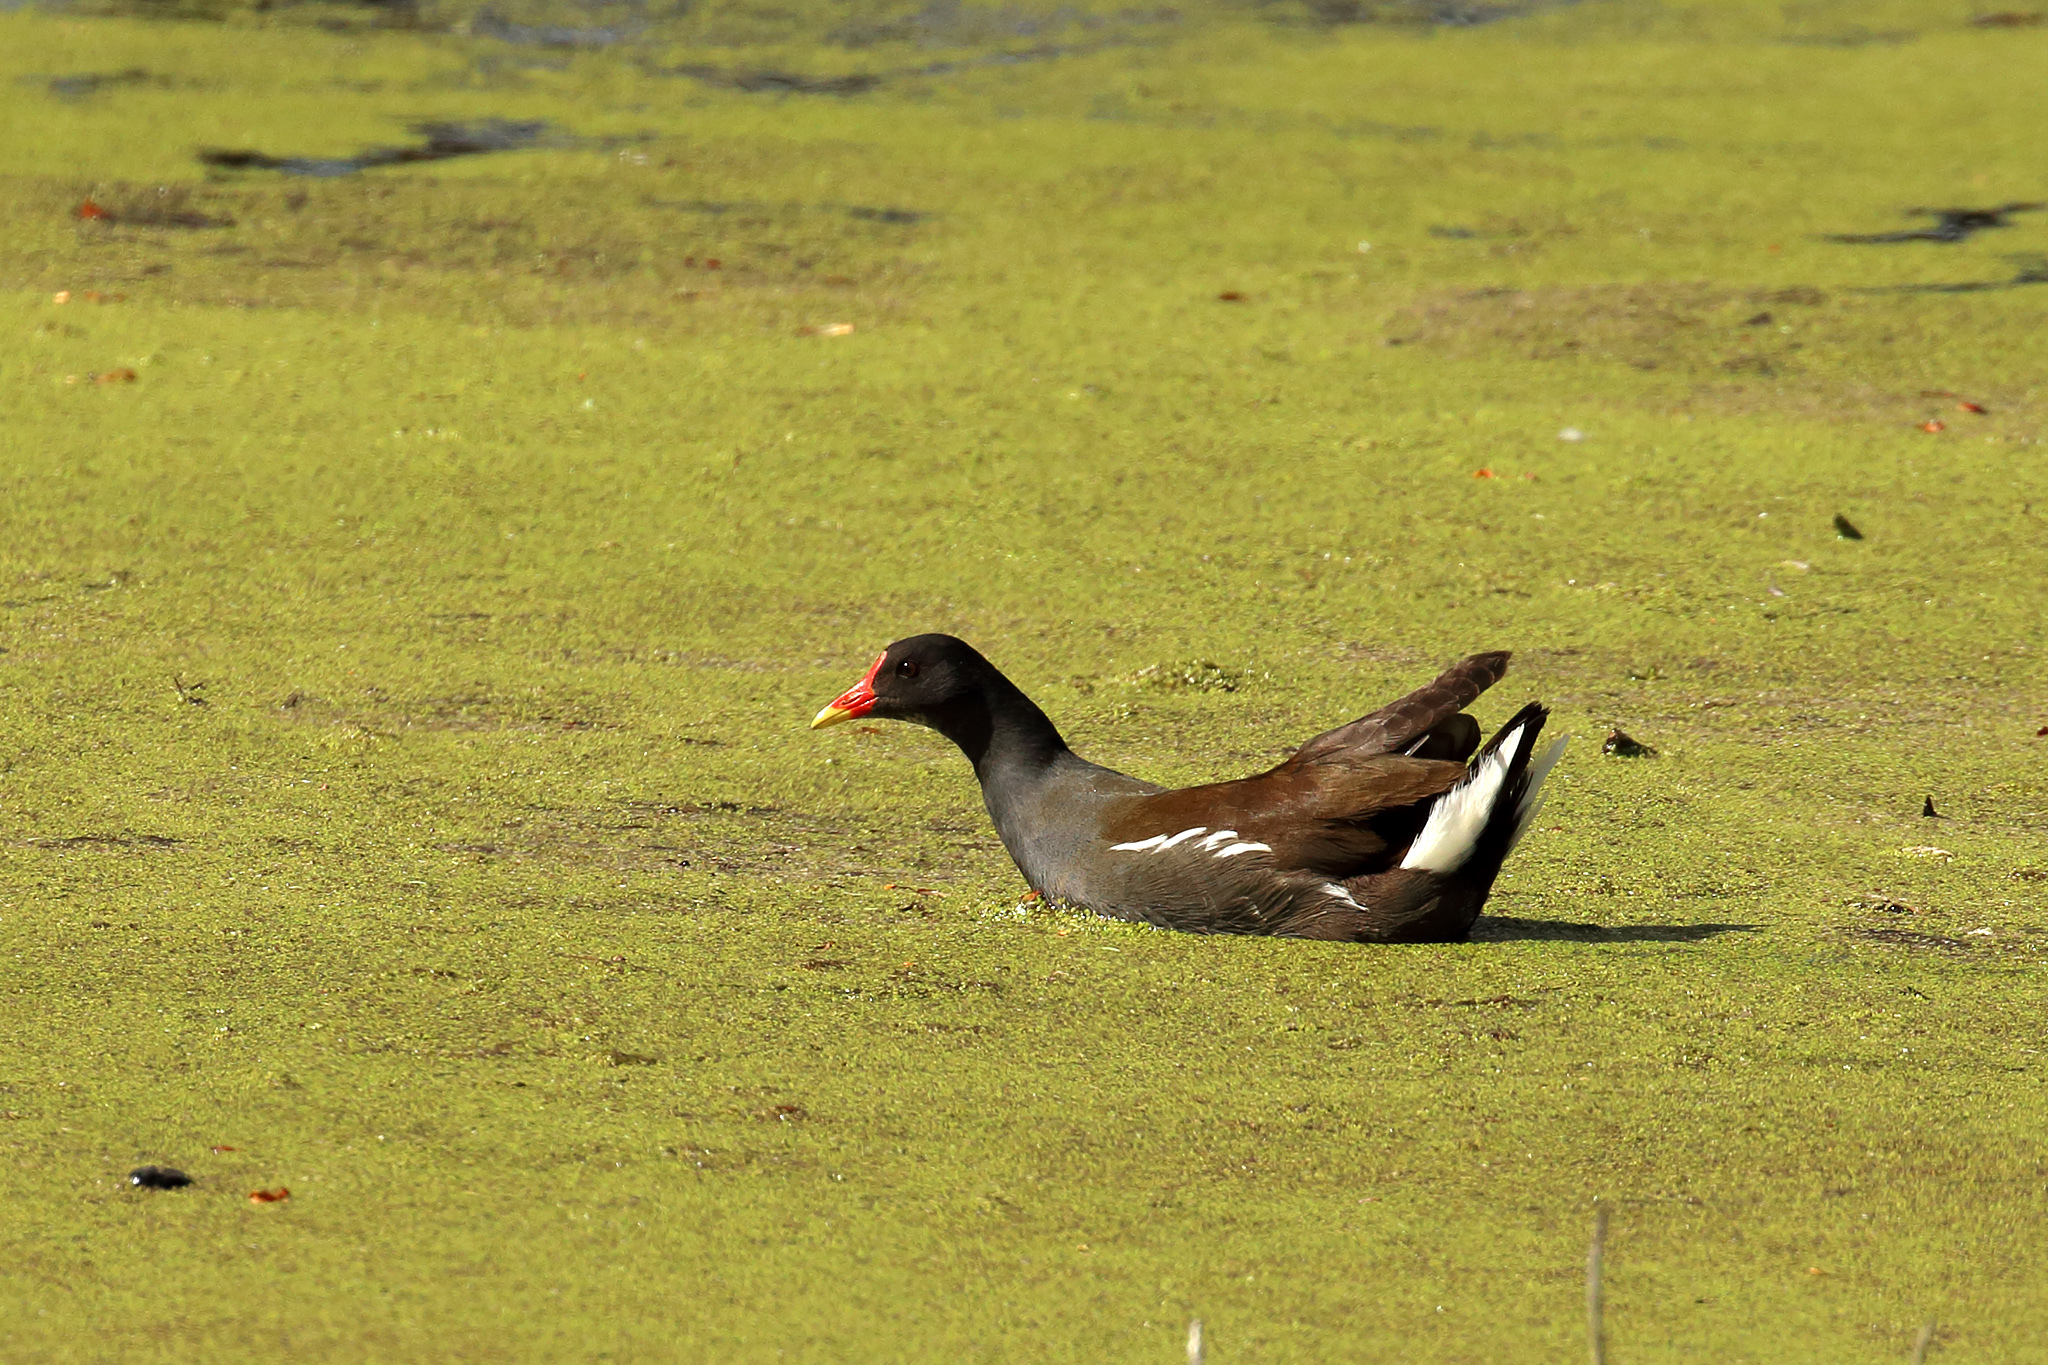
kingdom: Animalia
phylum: Chordata
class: Aves
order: Gruiformes
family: Rallidae
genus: Gallinula
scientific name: Gallinula chloropus
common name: Common moorhen
